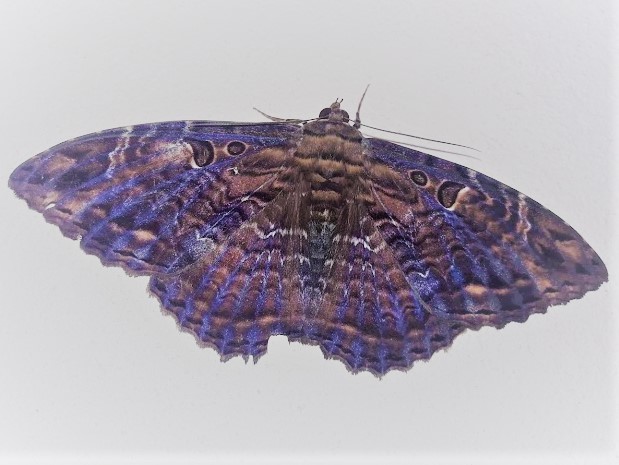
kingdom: Animalia
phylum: Arthropoda
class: Insecta
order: Lepidoptera
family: Erebidae
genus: Feigeria
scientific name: Feigeria buteo
